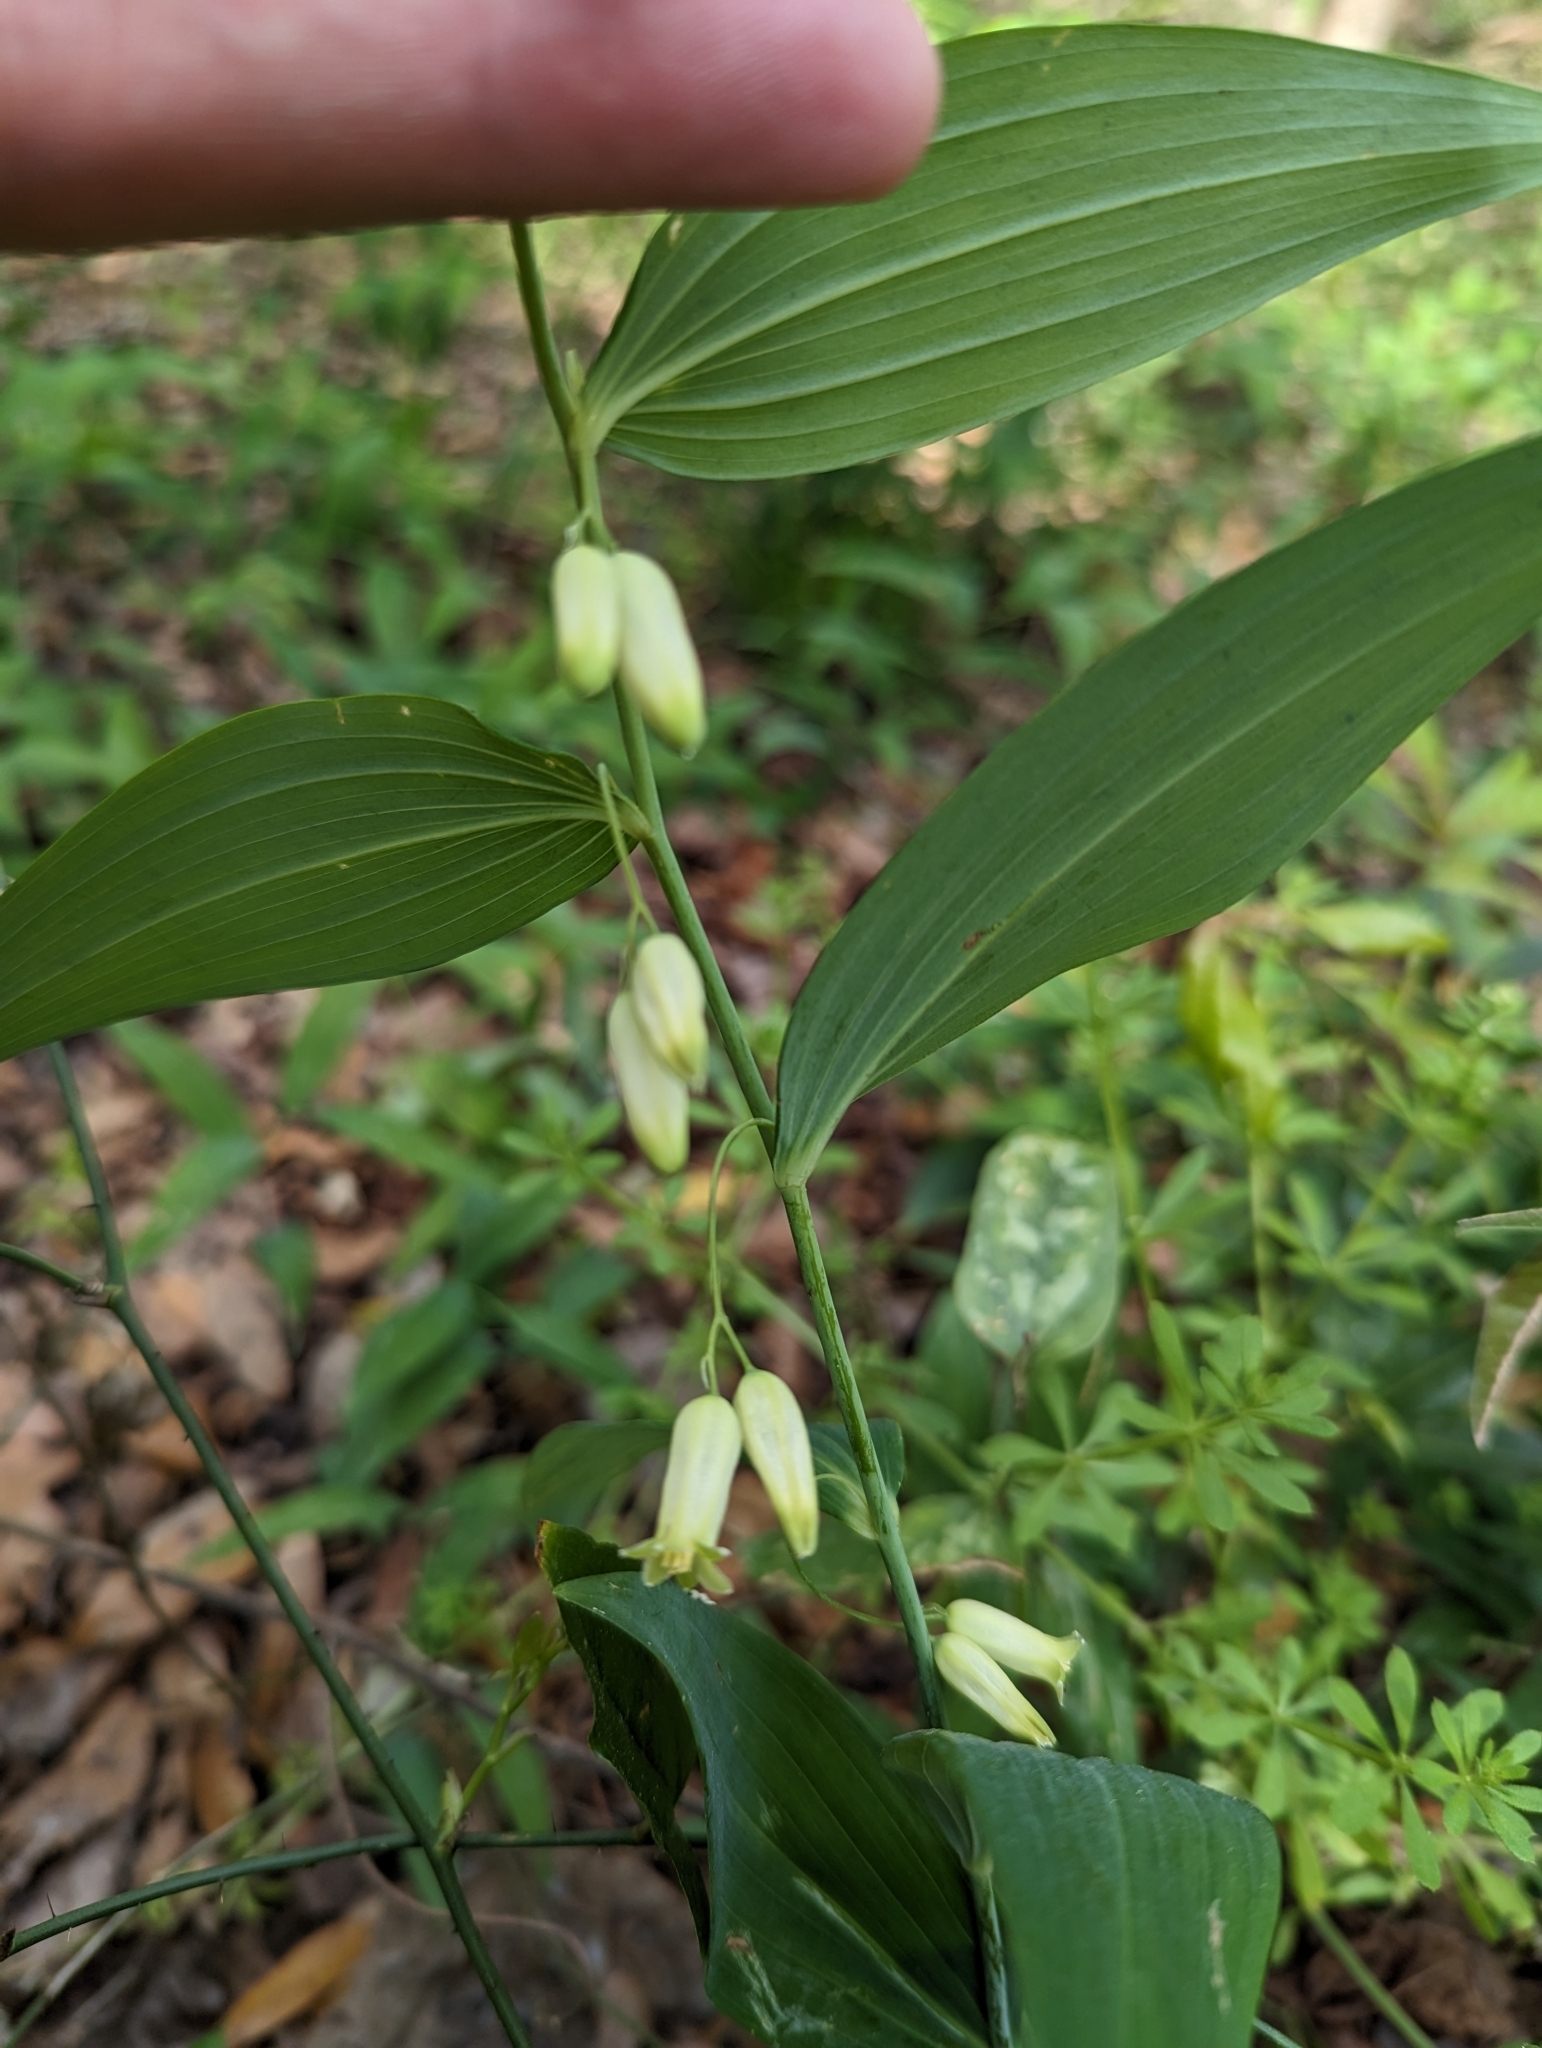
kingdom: Plantae
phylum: Tracheophyta
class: Liliopsida
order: Asparagales
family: Asparagaceae
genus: Polygonatum
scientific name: Polygonatum biflorum
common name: American solomon's-seal
